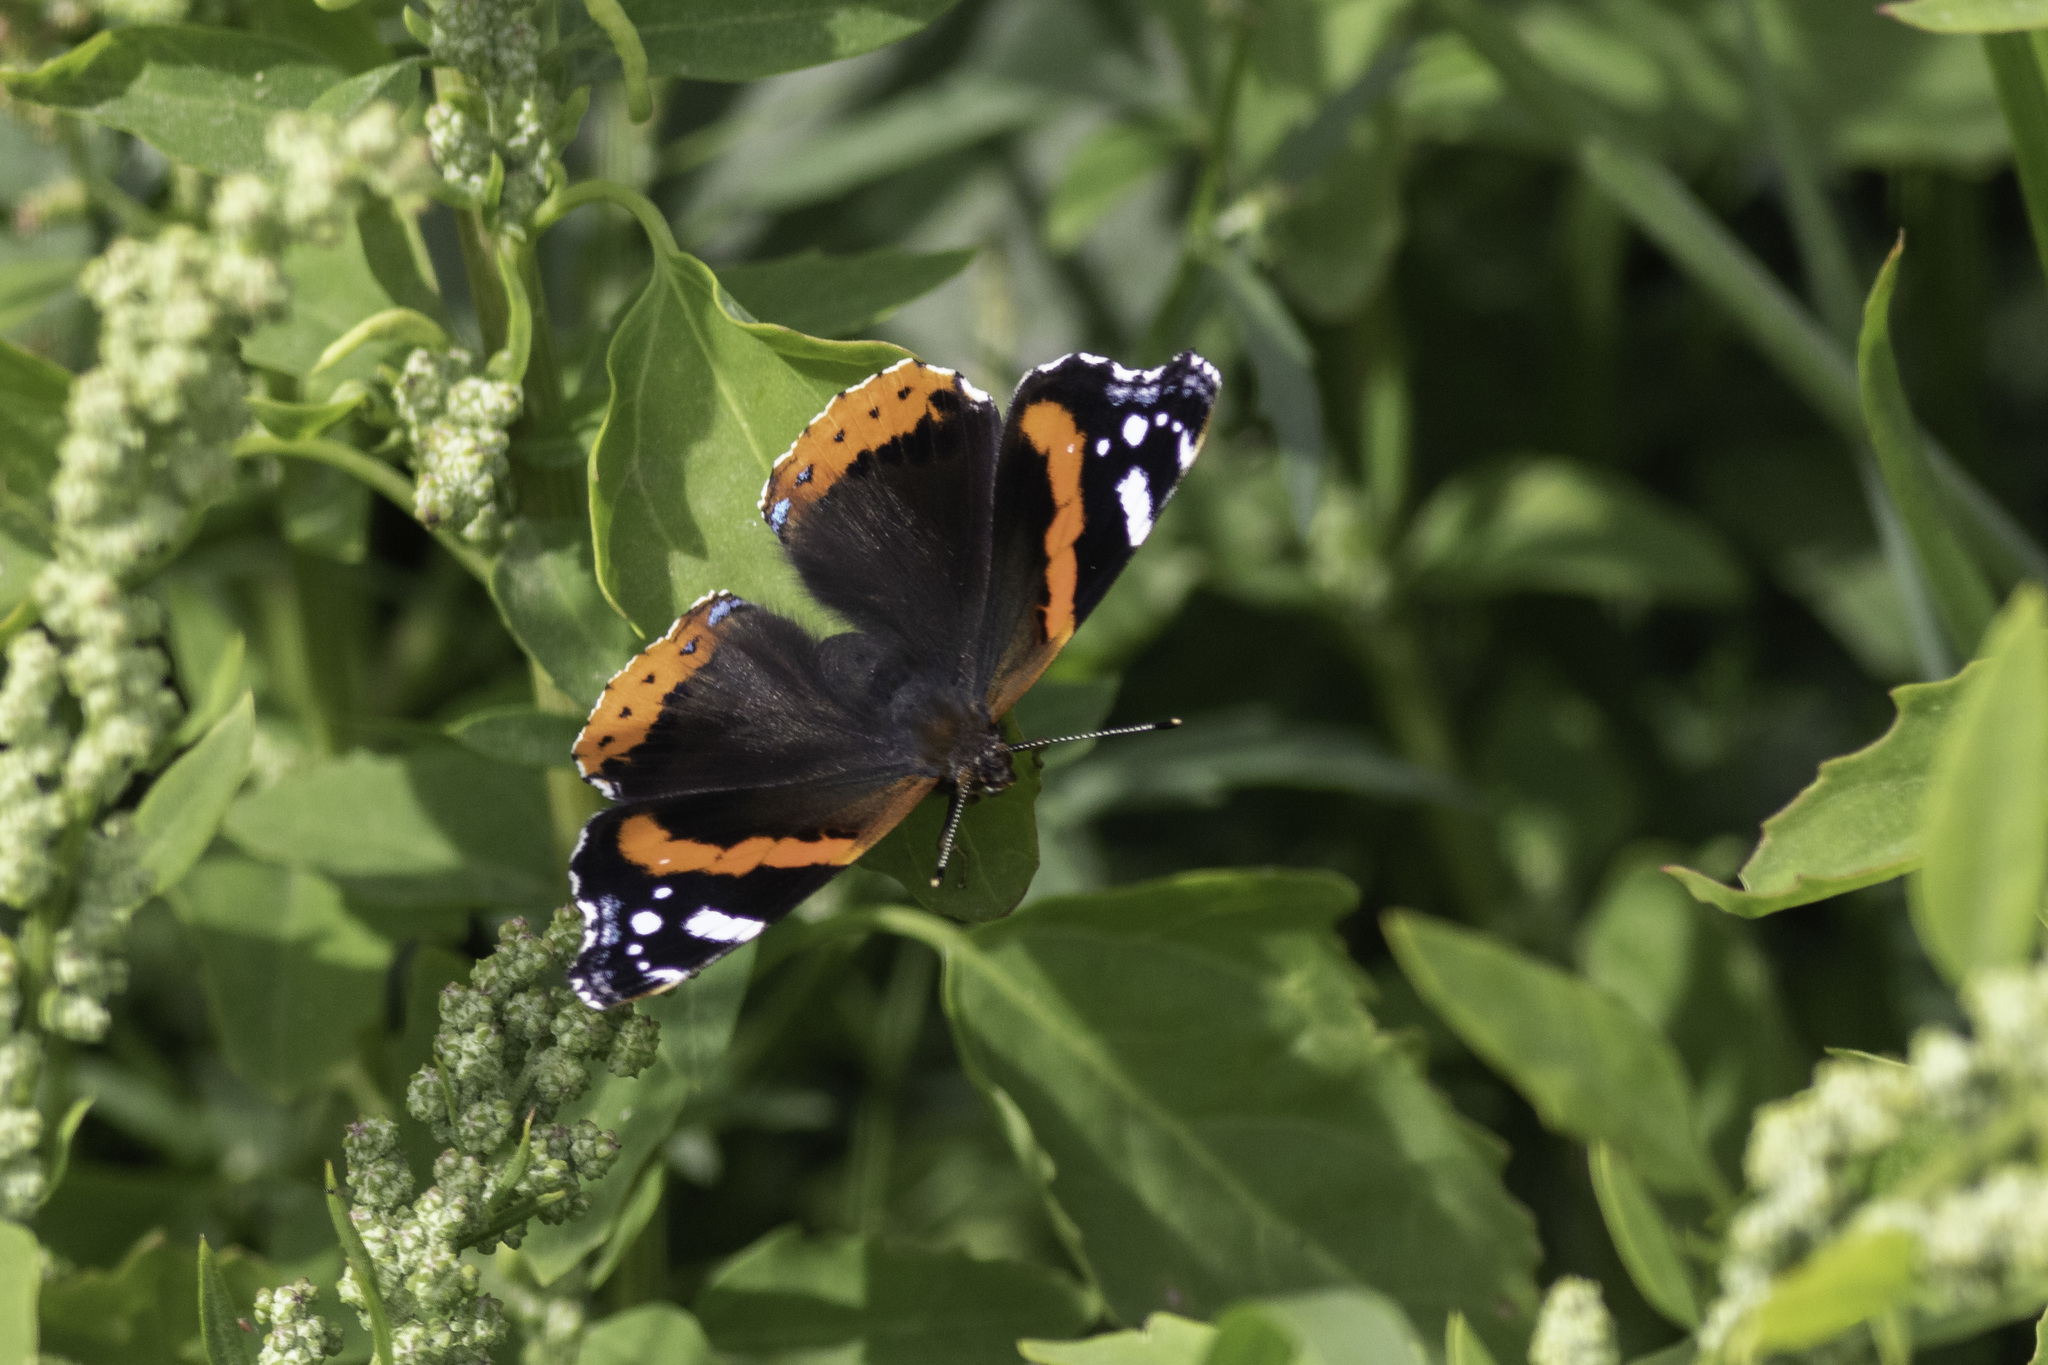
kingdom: Animalia
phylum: Arthropoda
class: Insecta
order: Lepidoptera
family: Nymphalidae
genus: Vanessa
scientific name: Vanessa atalanta
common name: Red admiral
